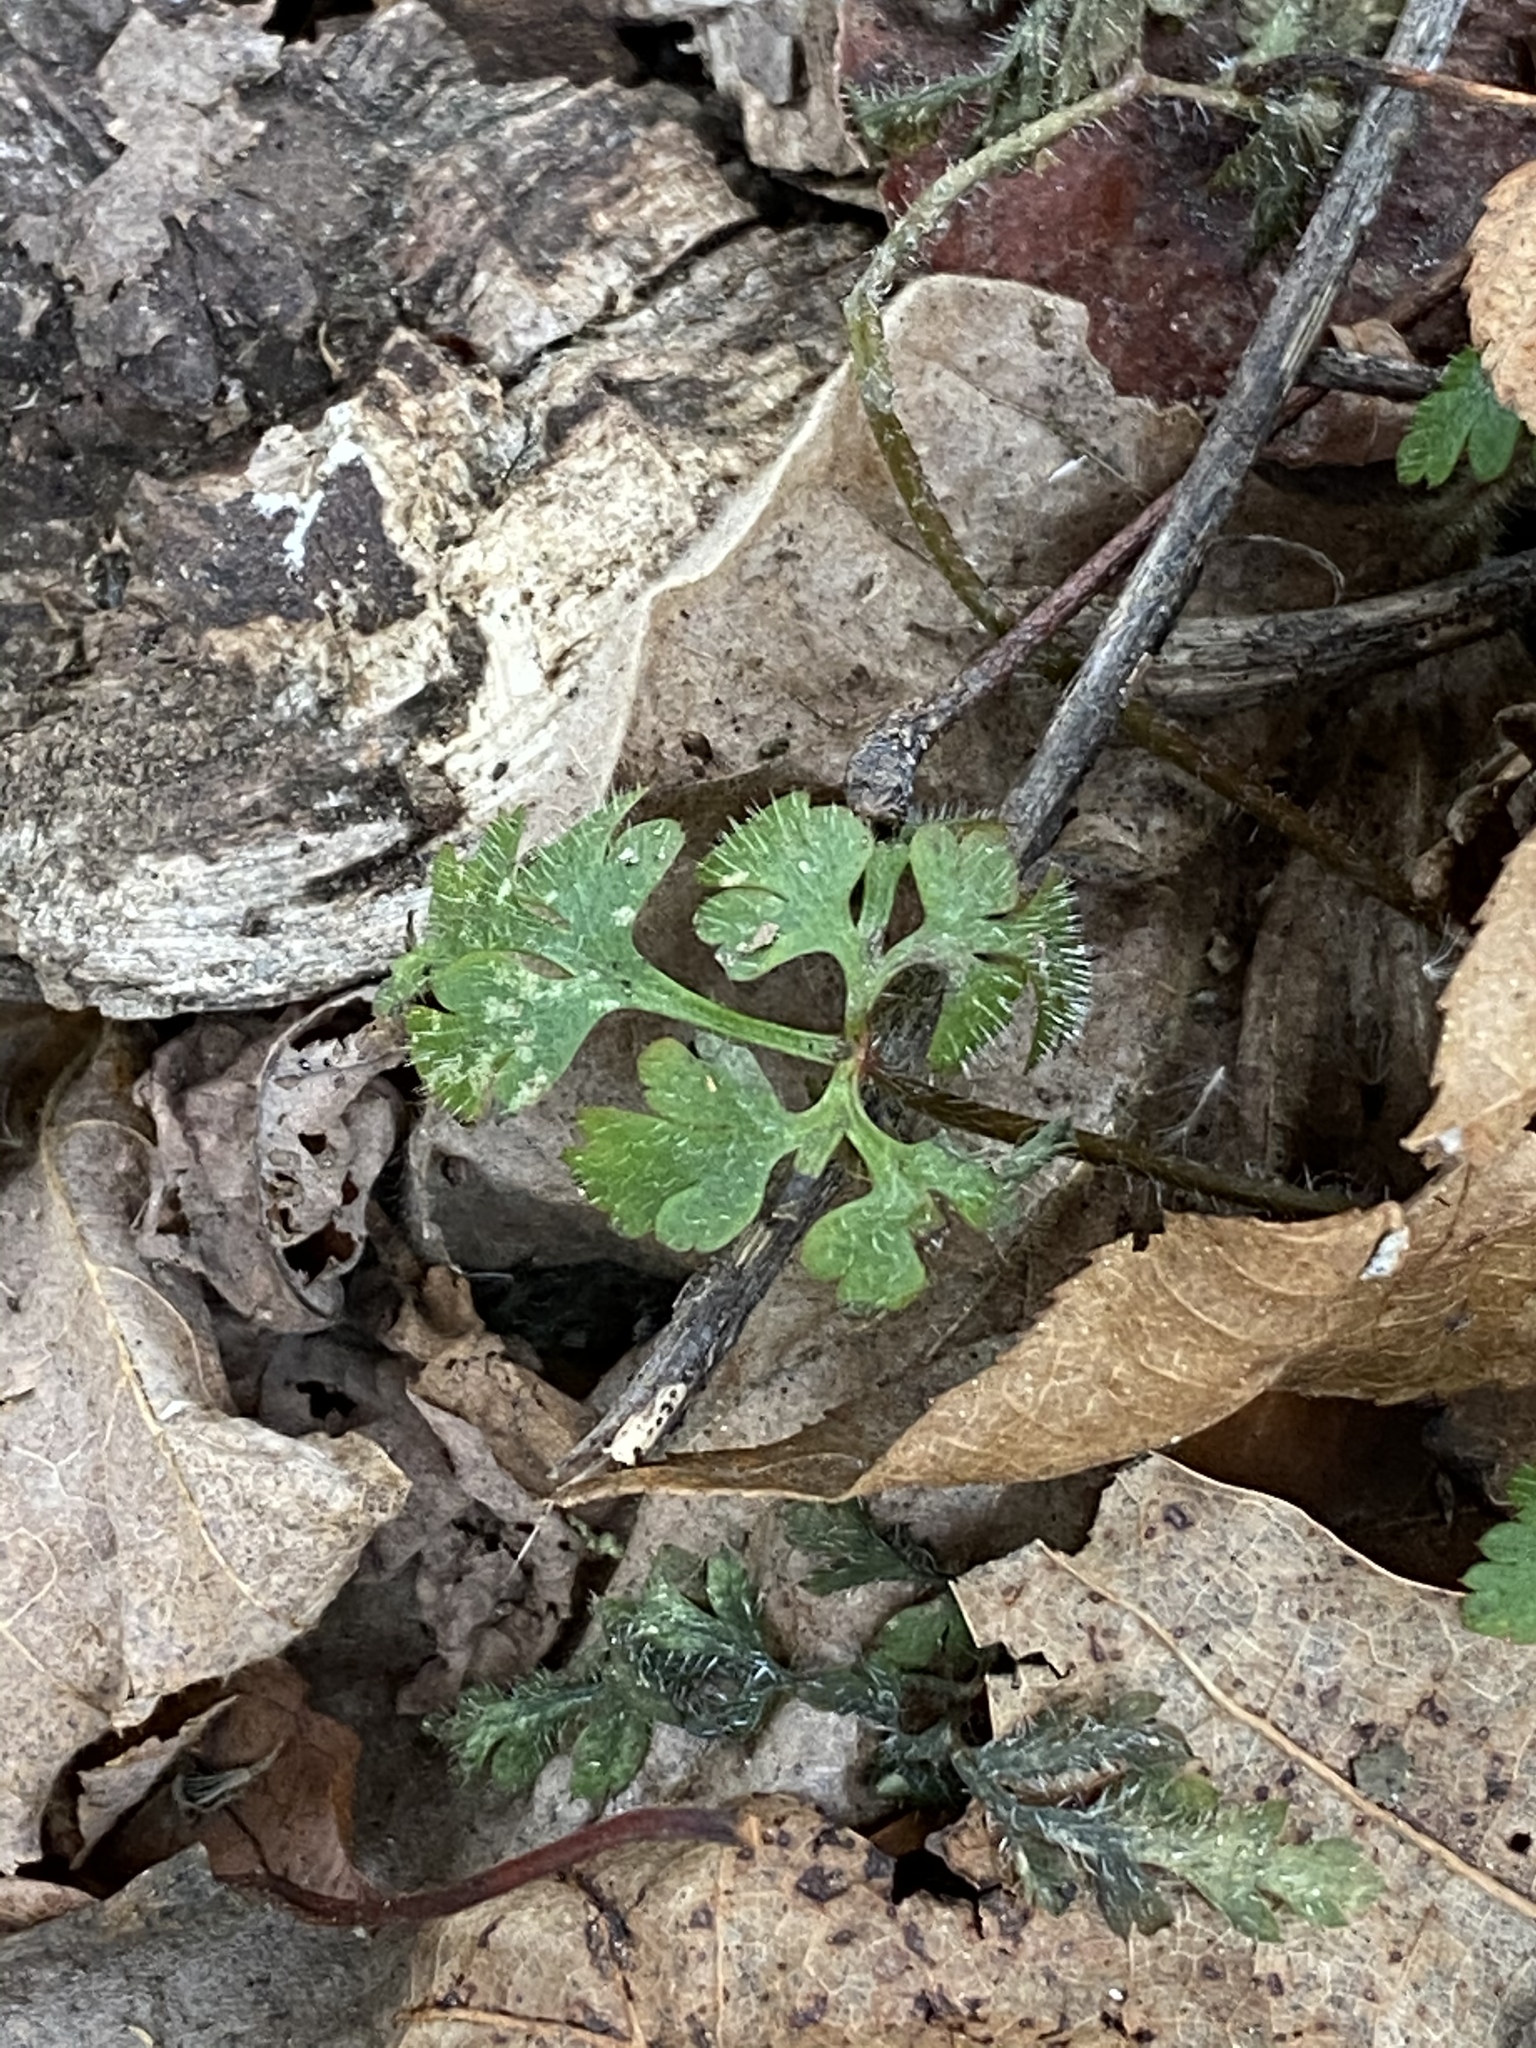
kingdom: Plantae
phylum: Tracheophyta
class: Magnoliopsida
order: Geraniales
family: Geraniaceae
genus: Geranium
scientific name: Geranium robertianum
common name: Herb-robert
